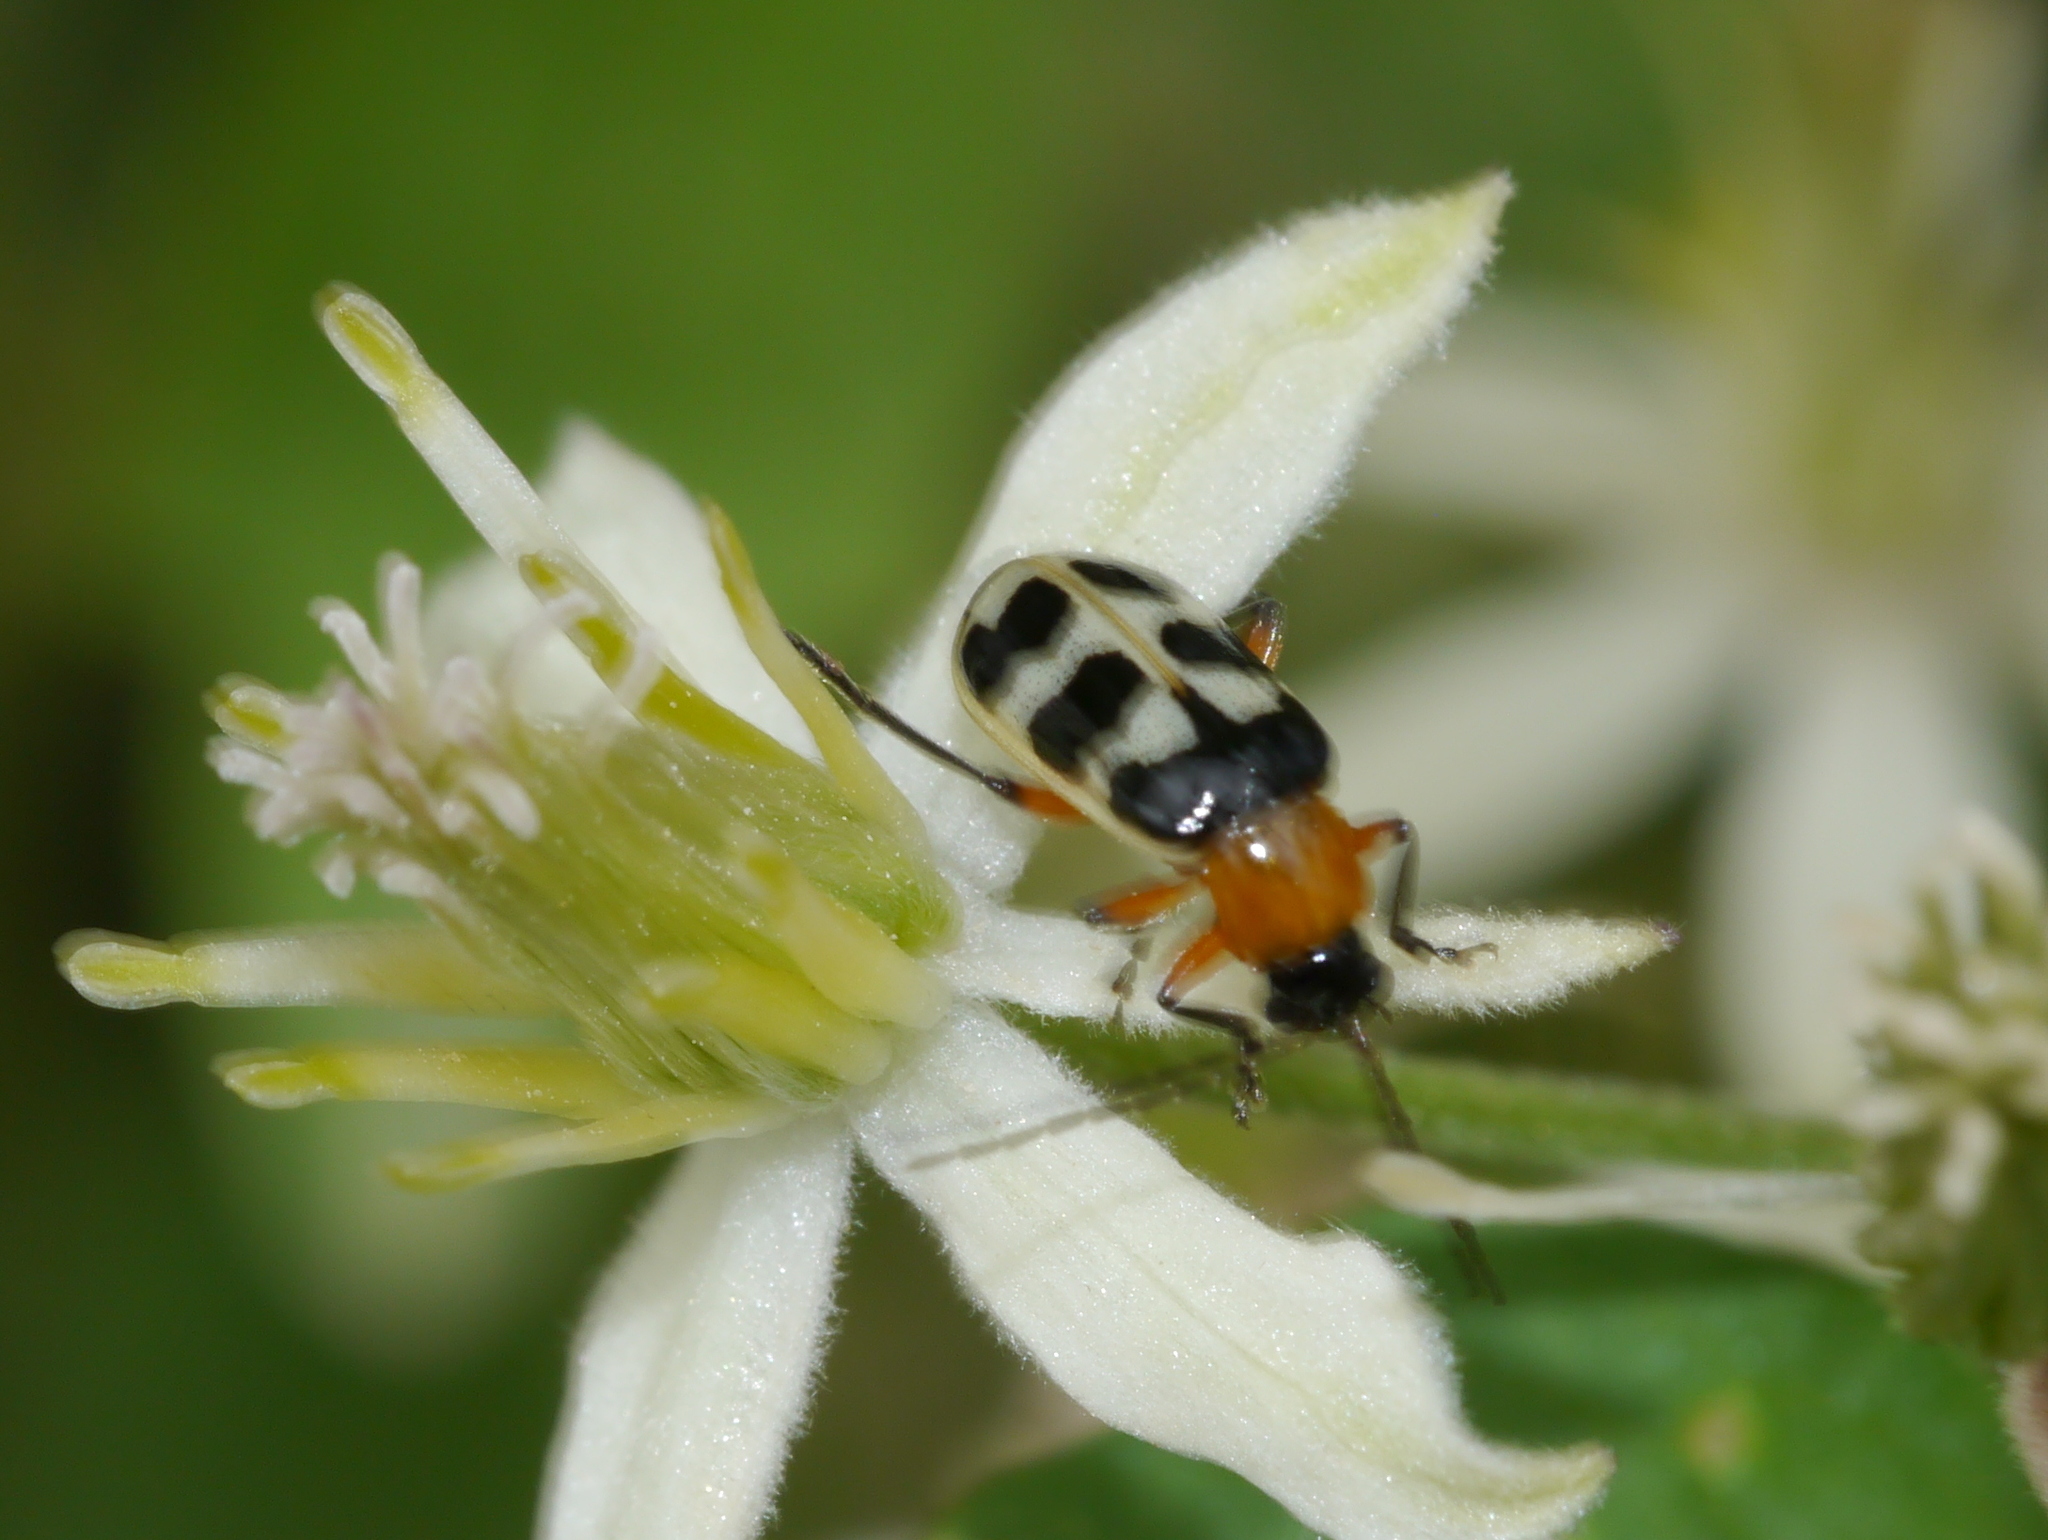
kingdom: Animalia
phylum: Arthropoda
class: Insecta
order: Coleoptera
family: Chrysomelidae
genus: Paranapiacaba
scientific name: Paranapiacaba tricincta
